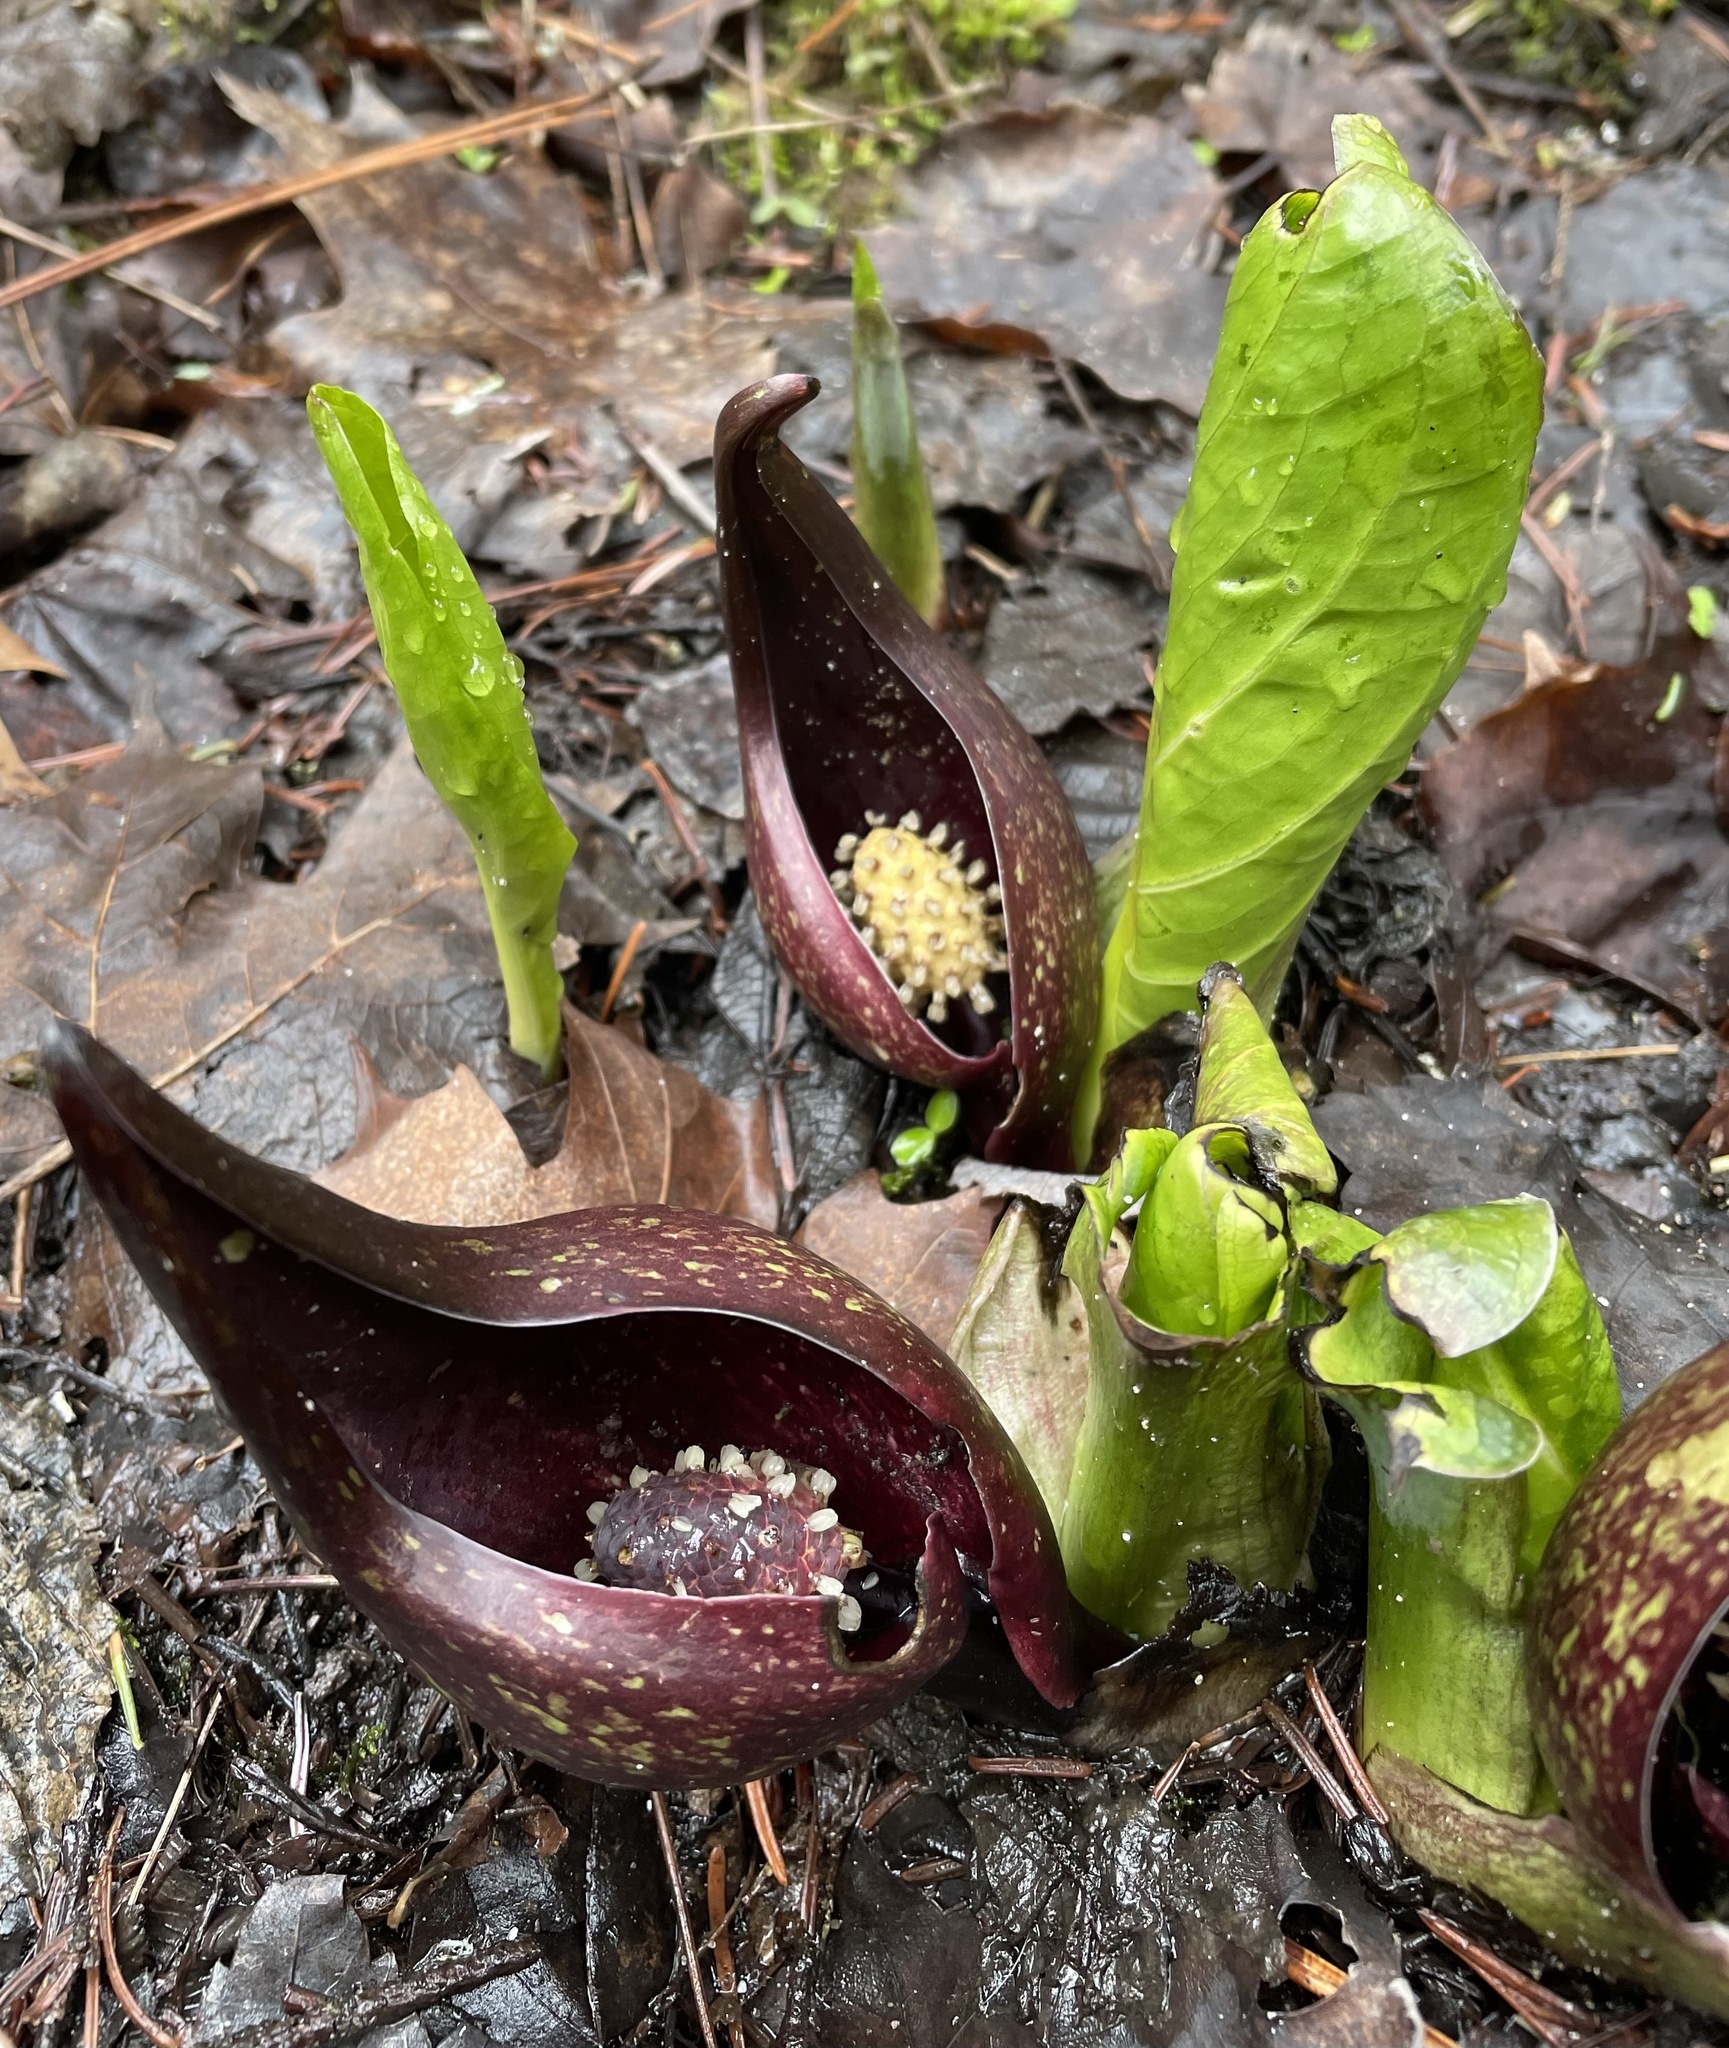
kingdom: Plantae
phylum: Tracheophyta
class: Liliopsida
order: Alismatales
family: Araceae
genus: Symplocarpus
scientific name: Symplocarpus foetidus
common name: Eastern skunk cabbage
